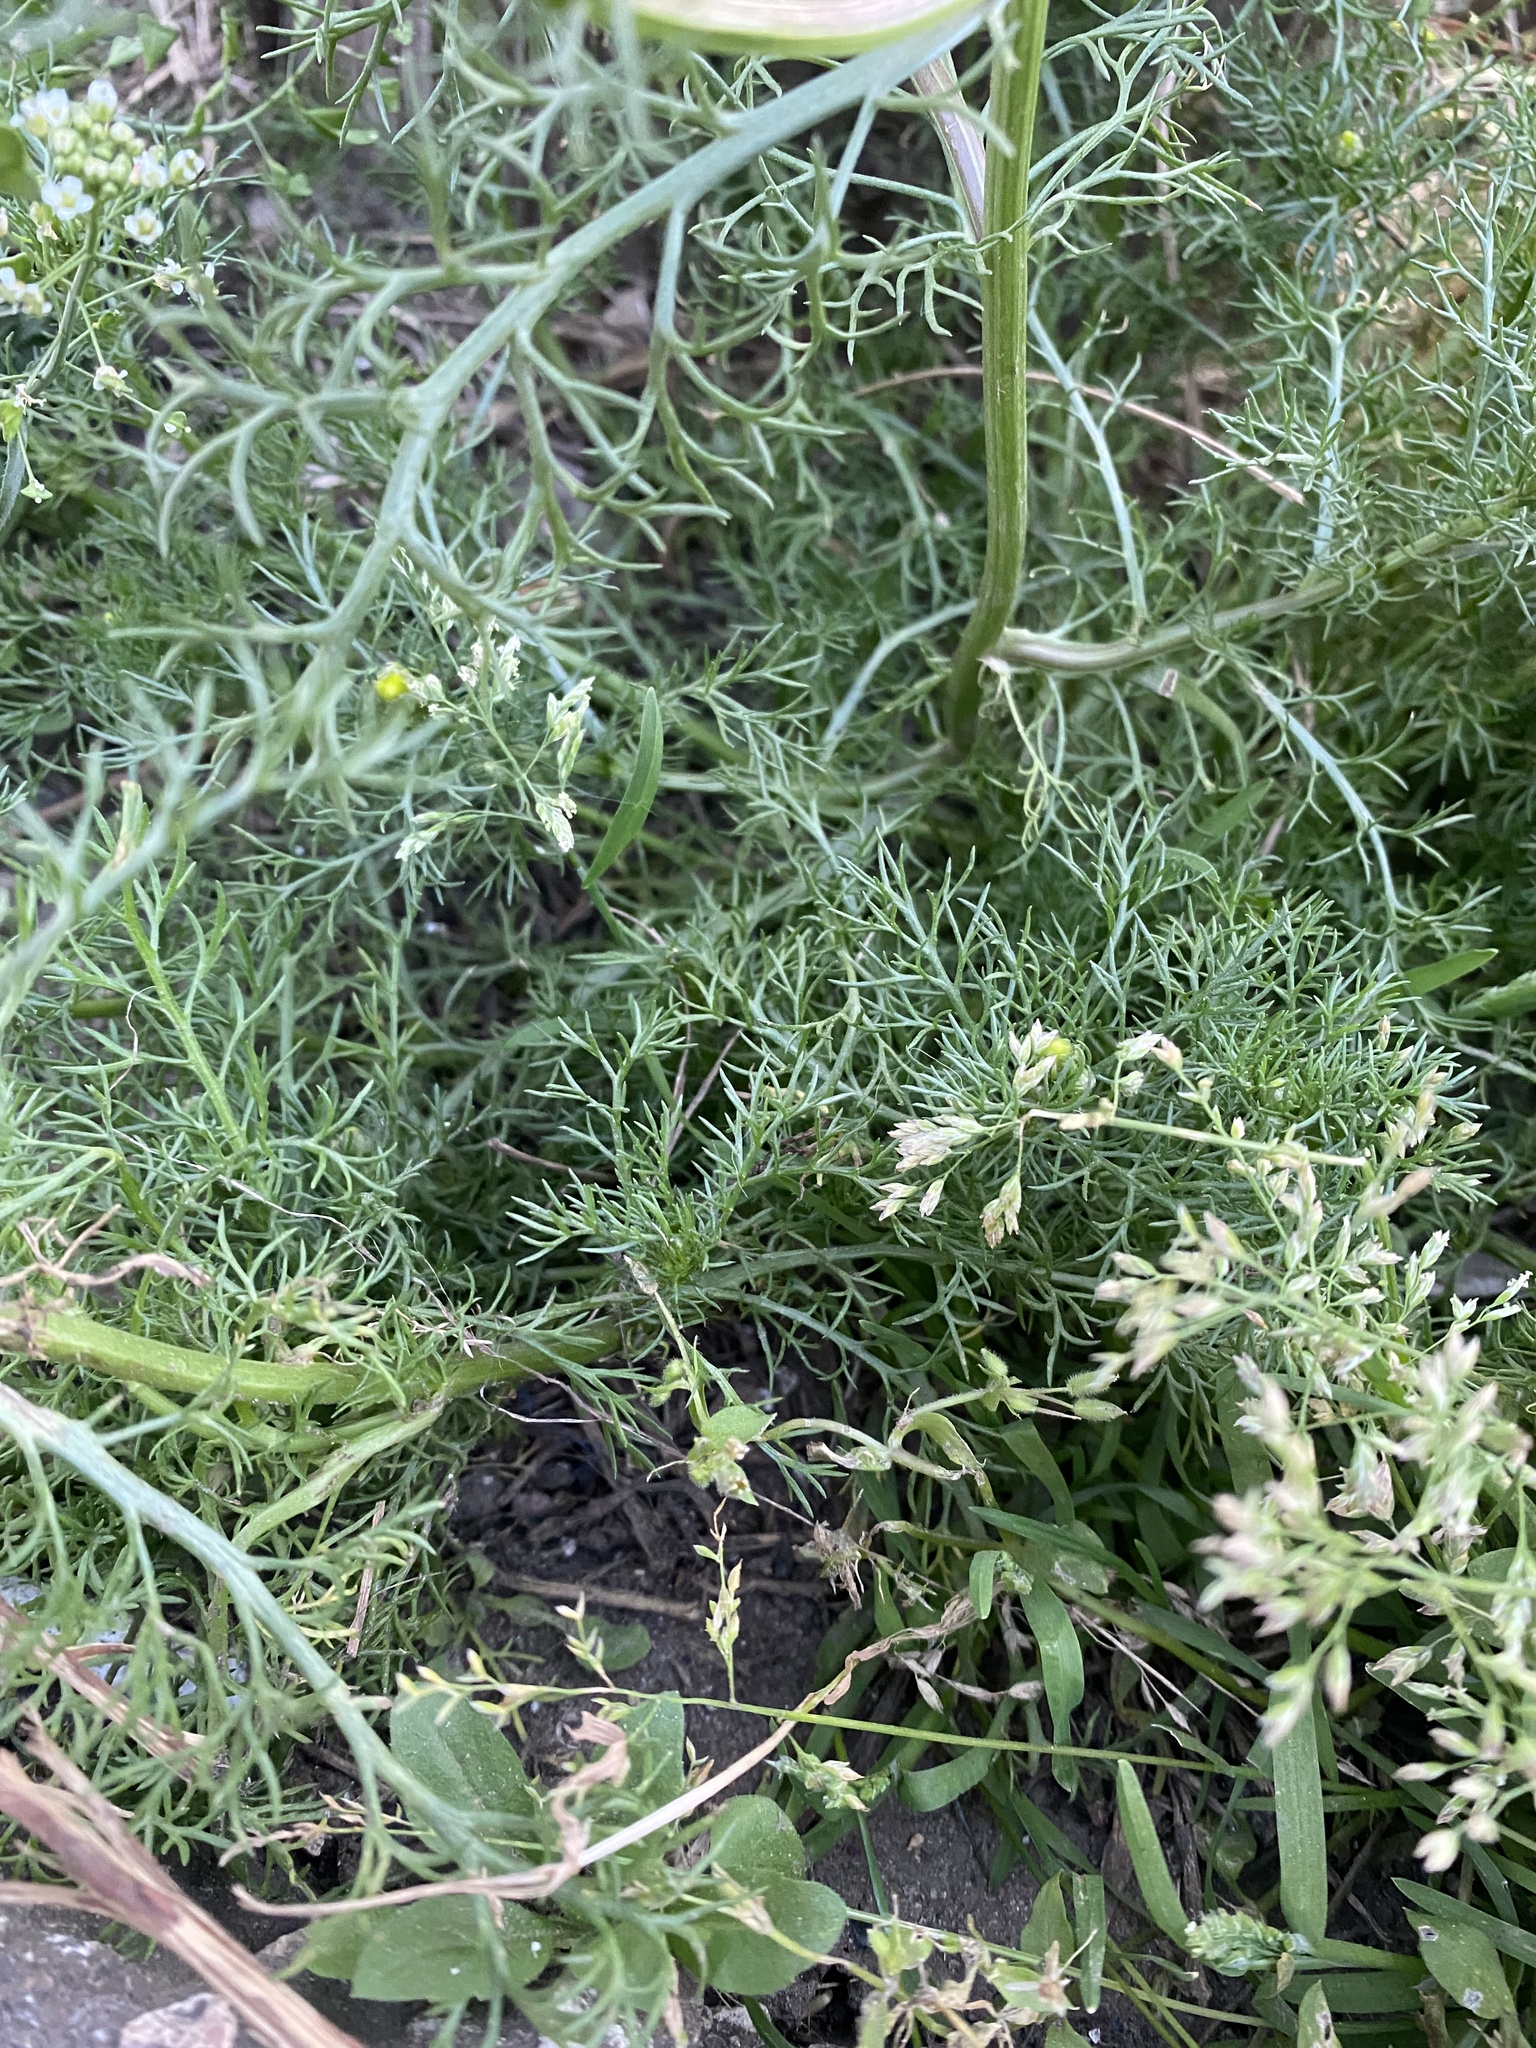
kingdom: Plantae
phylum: Tracheophyta
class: Magnoliopsida
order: Asterales
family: Asteraceae
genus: Matricaria
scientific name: Matricaria chamomilla
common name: Scented mayweed
